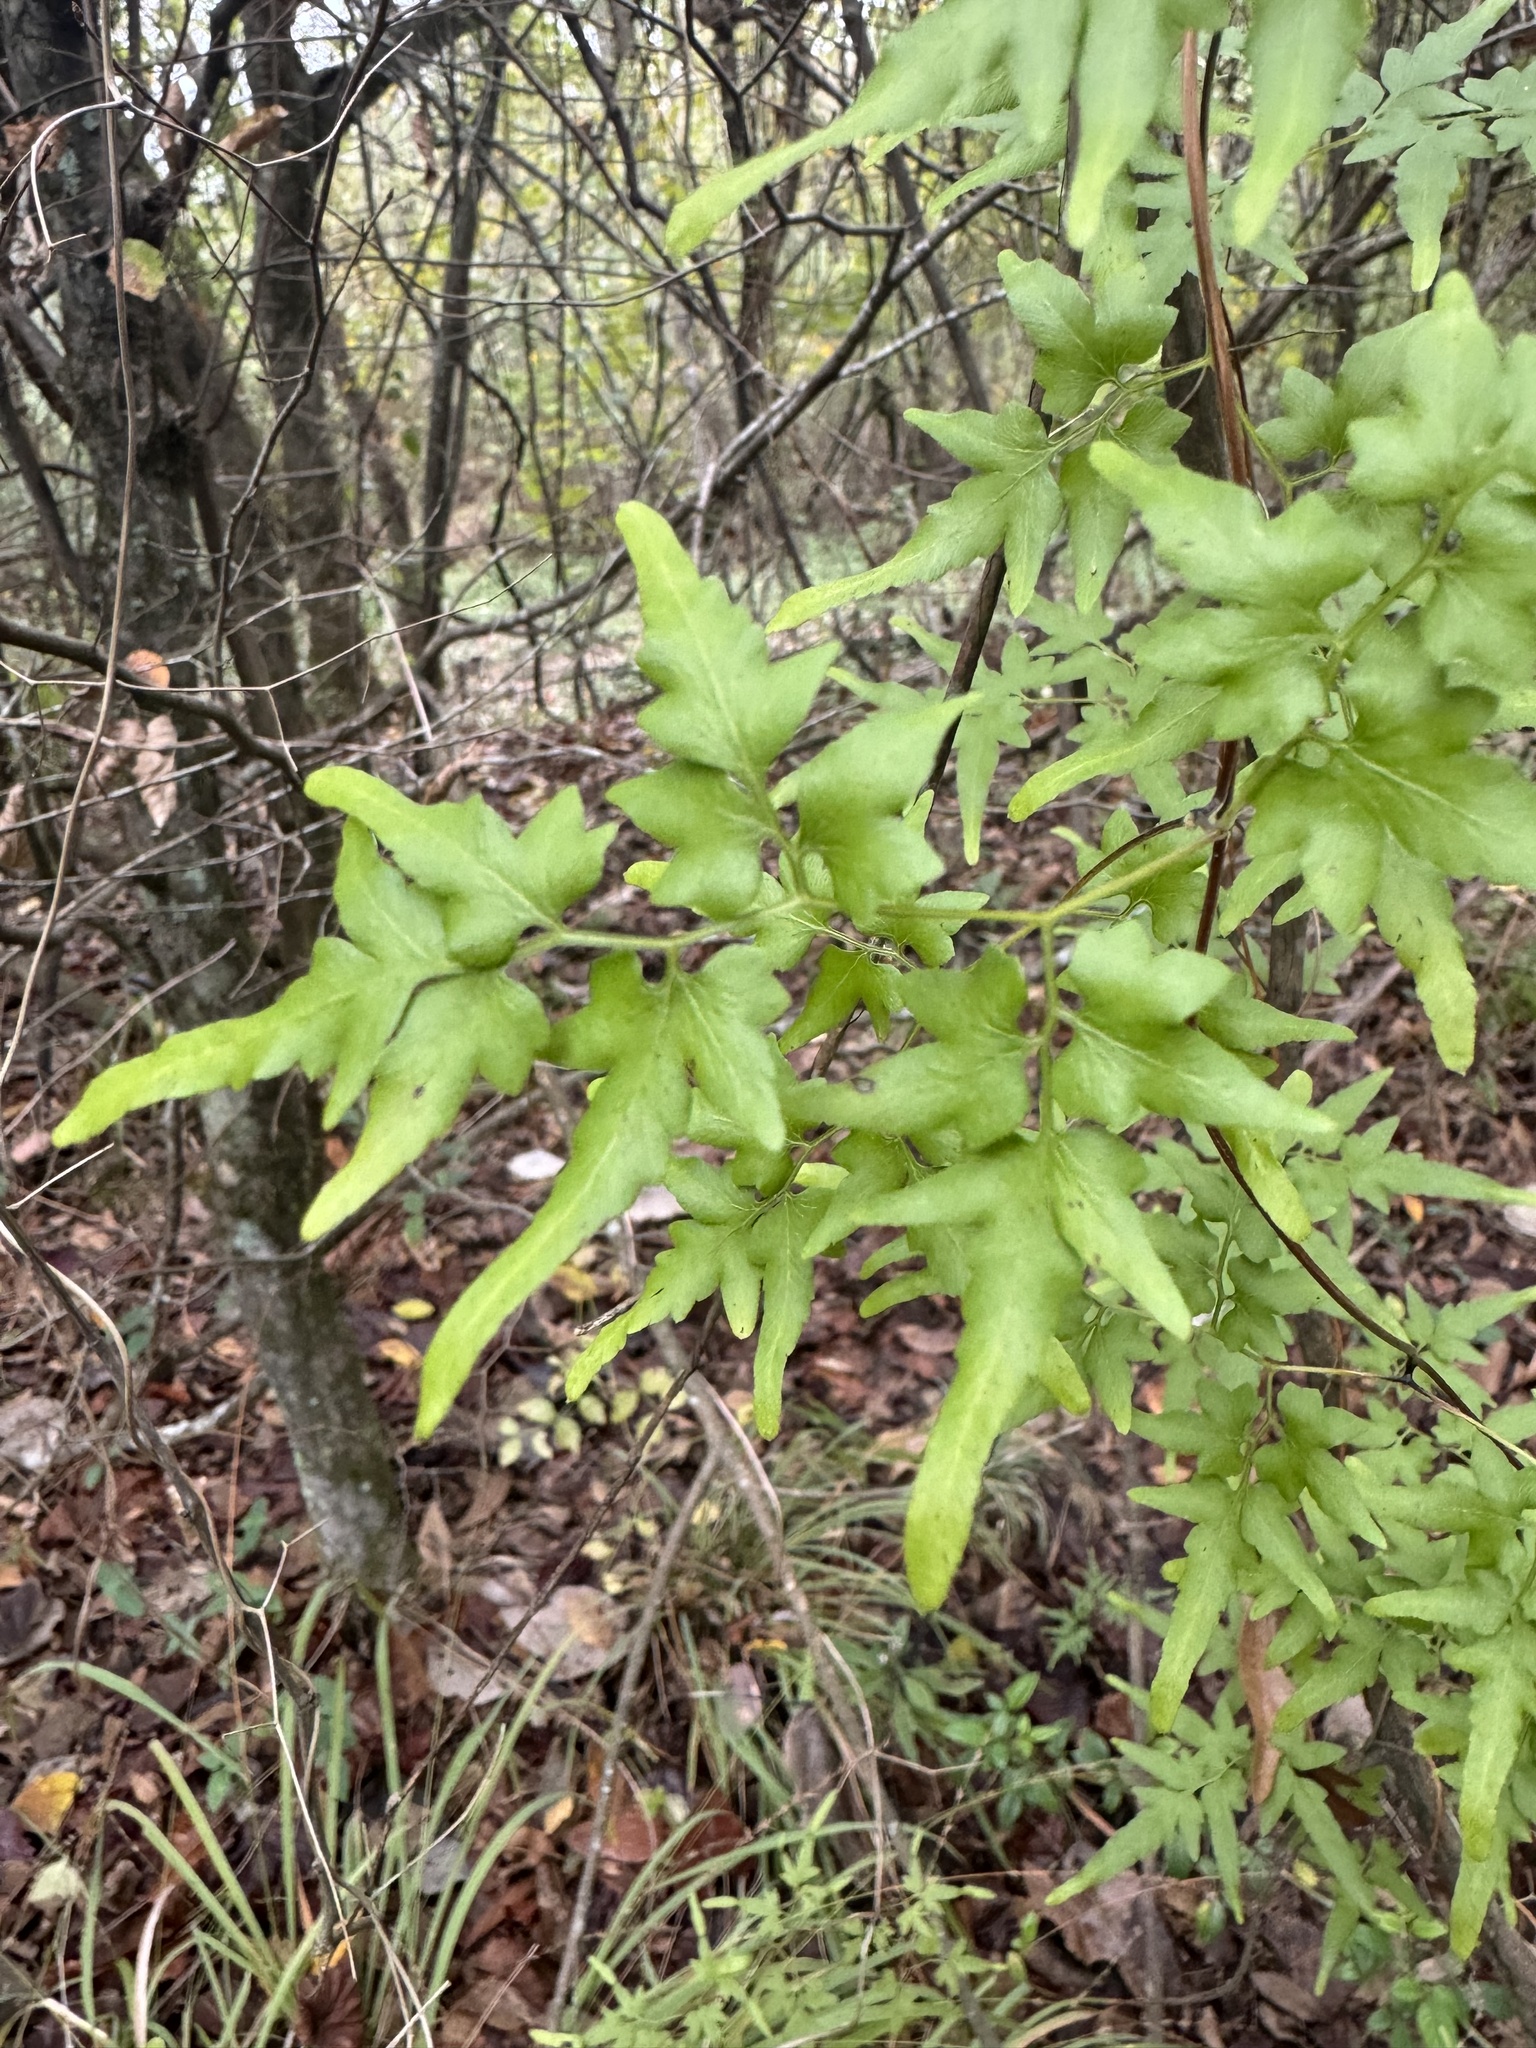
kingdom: Plantae
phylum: Tracheophyta
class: Polypodiopsida
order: Schizaeales
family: Lygodiaceae
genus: Lygodium
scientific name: Lygodium japonicum
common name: Japanese climbing fern
